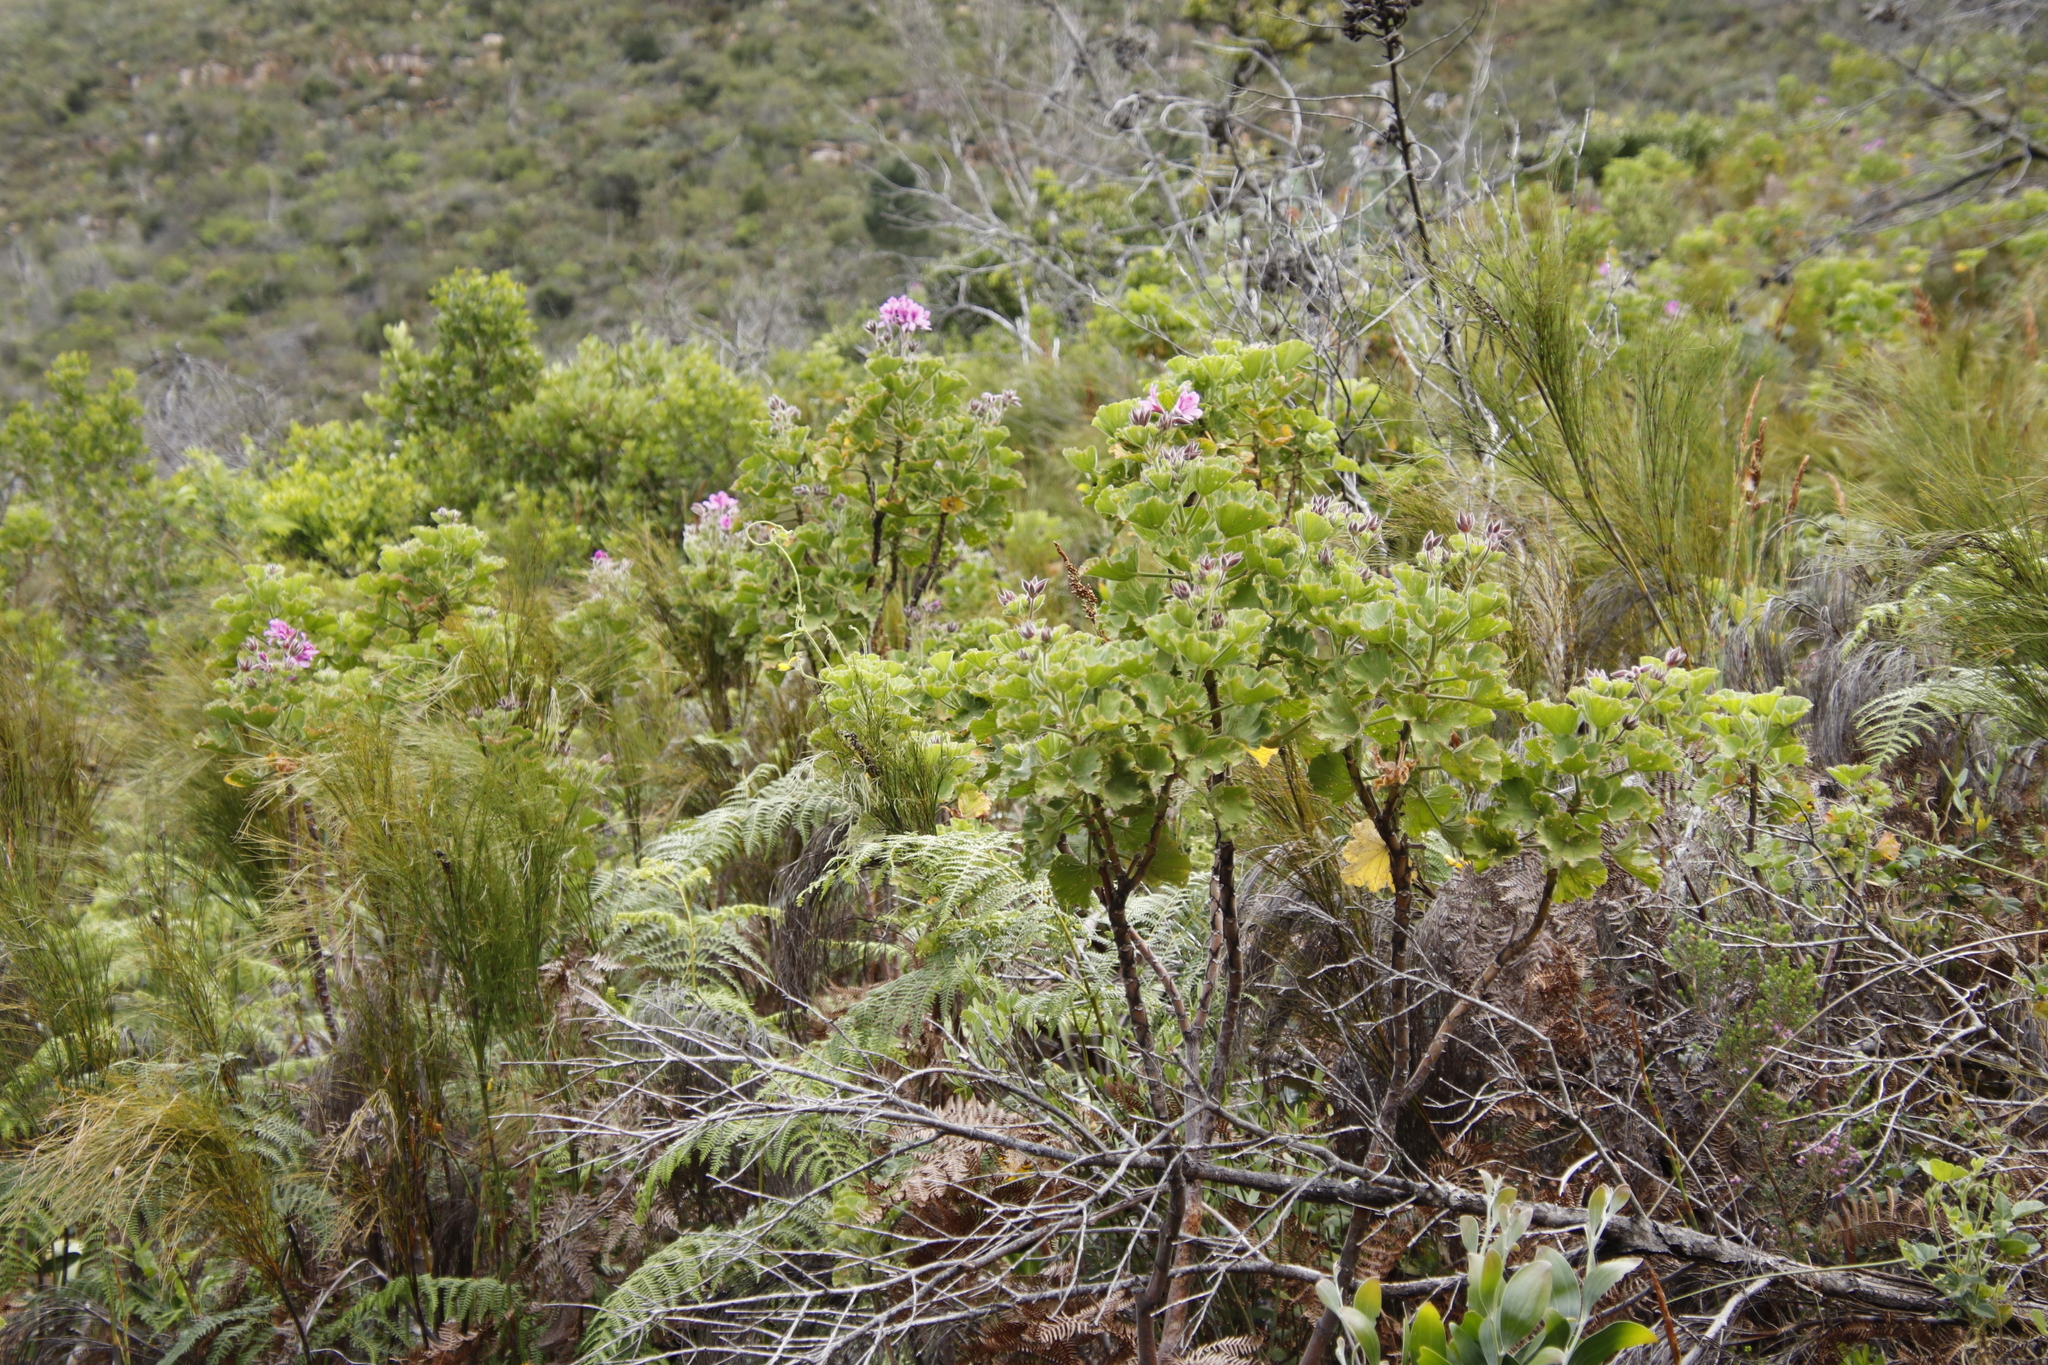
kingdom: Plantae
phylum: Tracheophyta
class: Magnoliopsida
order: Geraniales
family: Geraniaceae
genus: Pelargonium
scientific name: Pelargonium cucullatum
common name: Tree pelargonium
